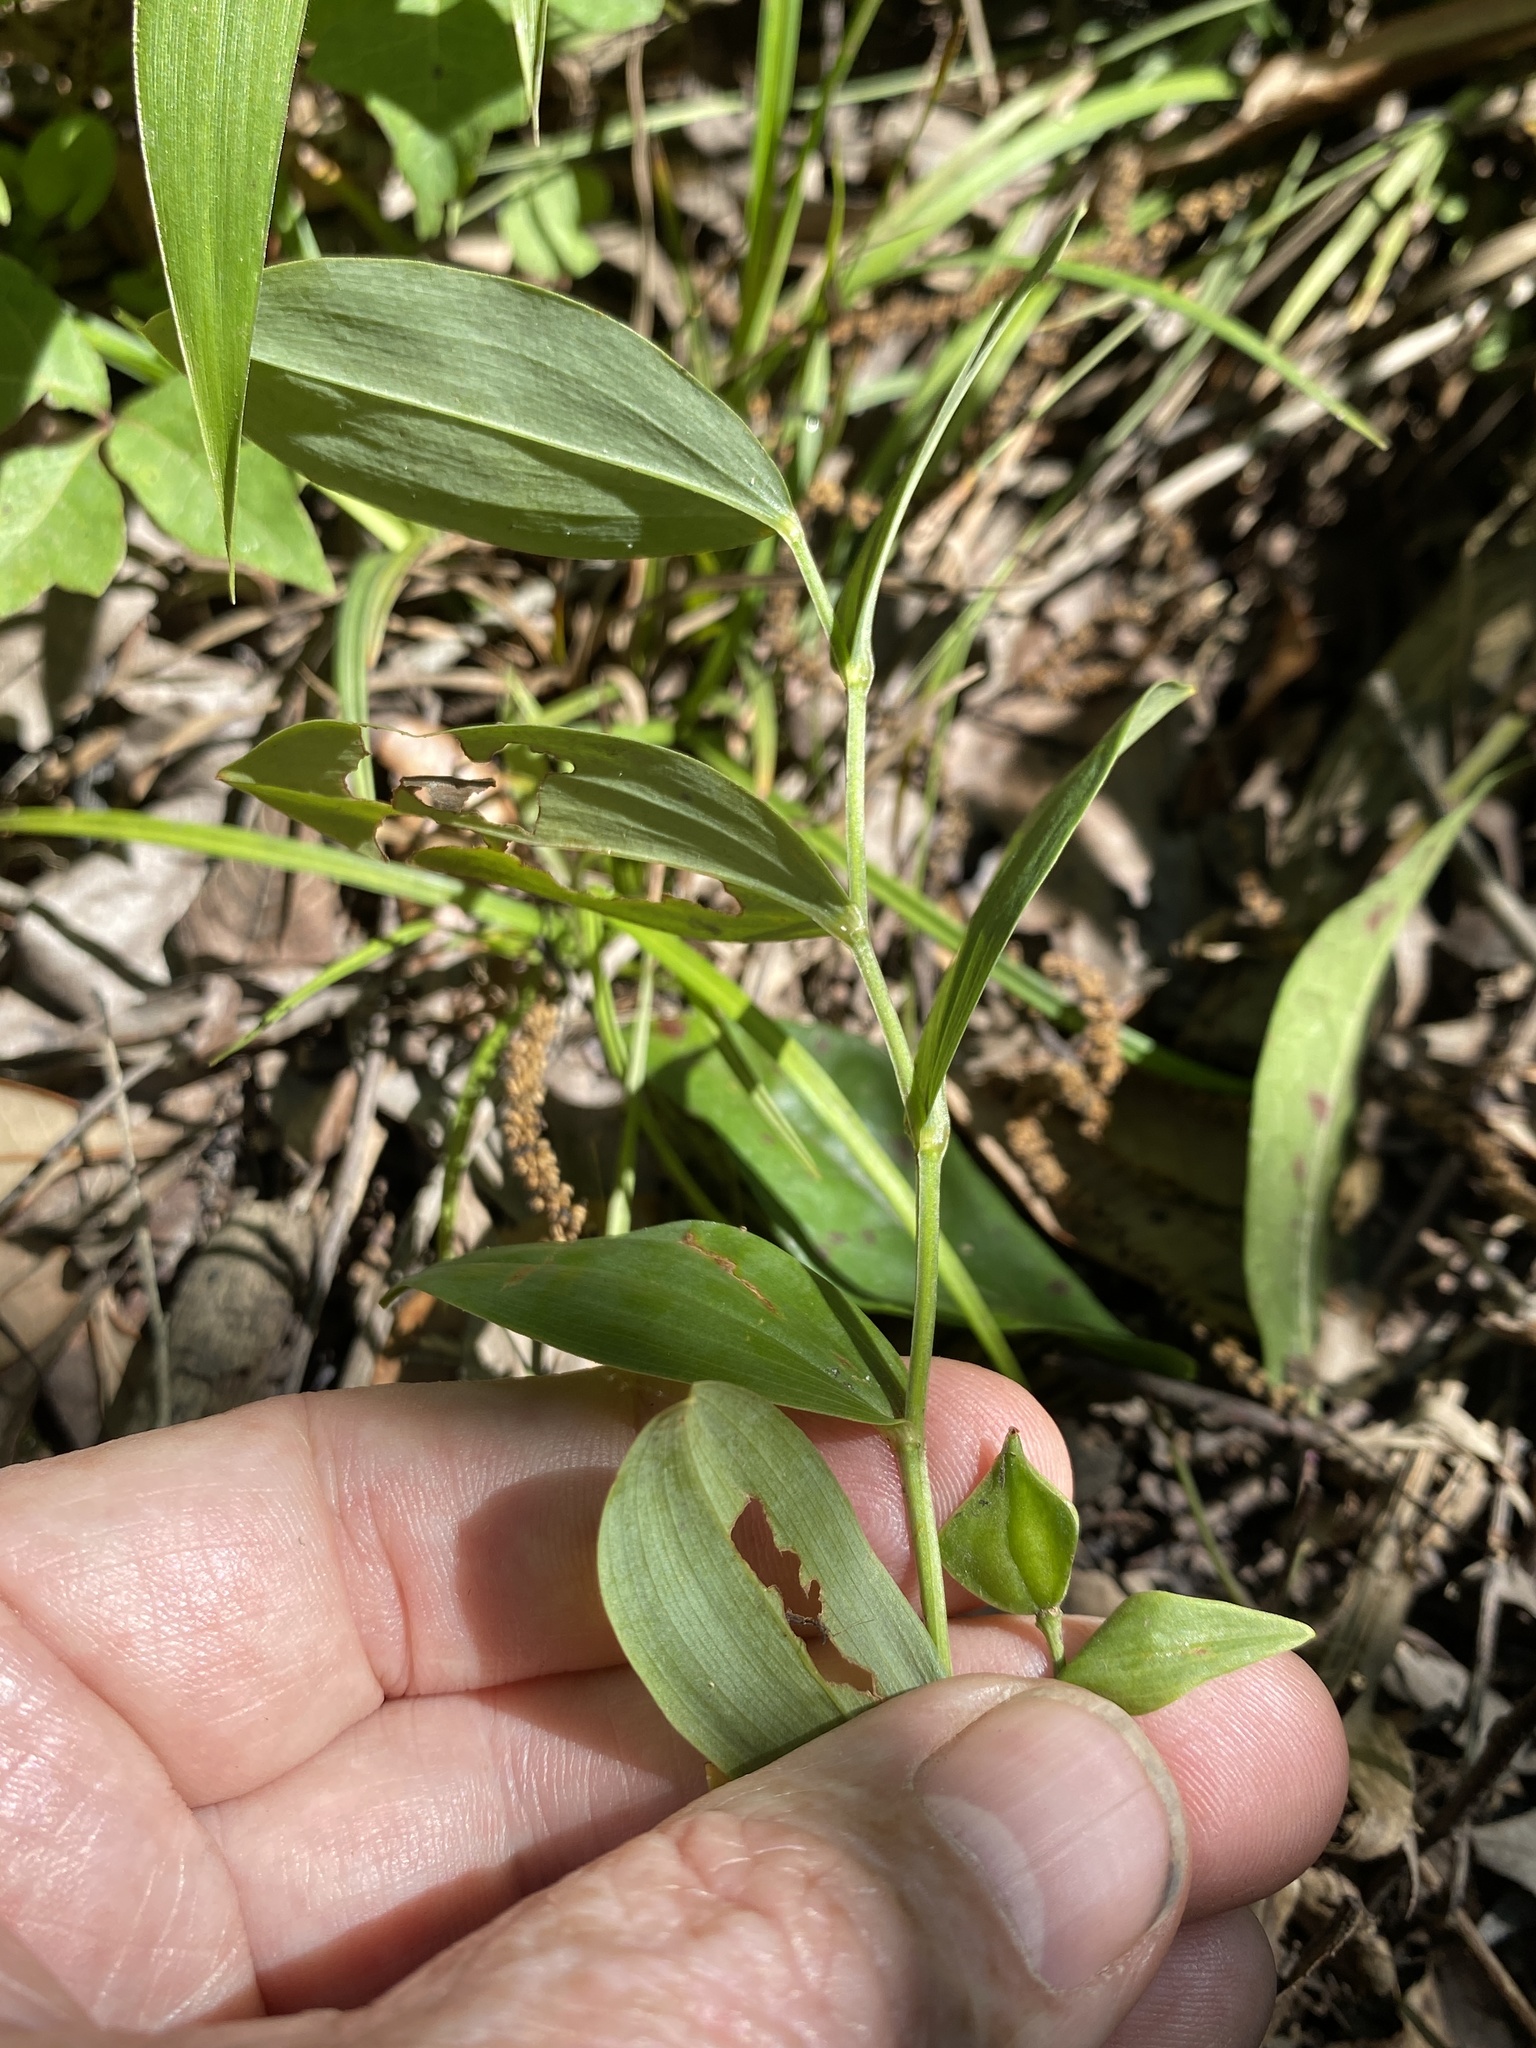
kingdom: Plantae
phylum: Tracheophyta
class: Liliopsida
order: Liliales
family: Colchicaceae
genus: Uvularia
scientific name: Uvularia floridana
